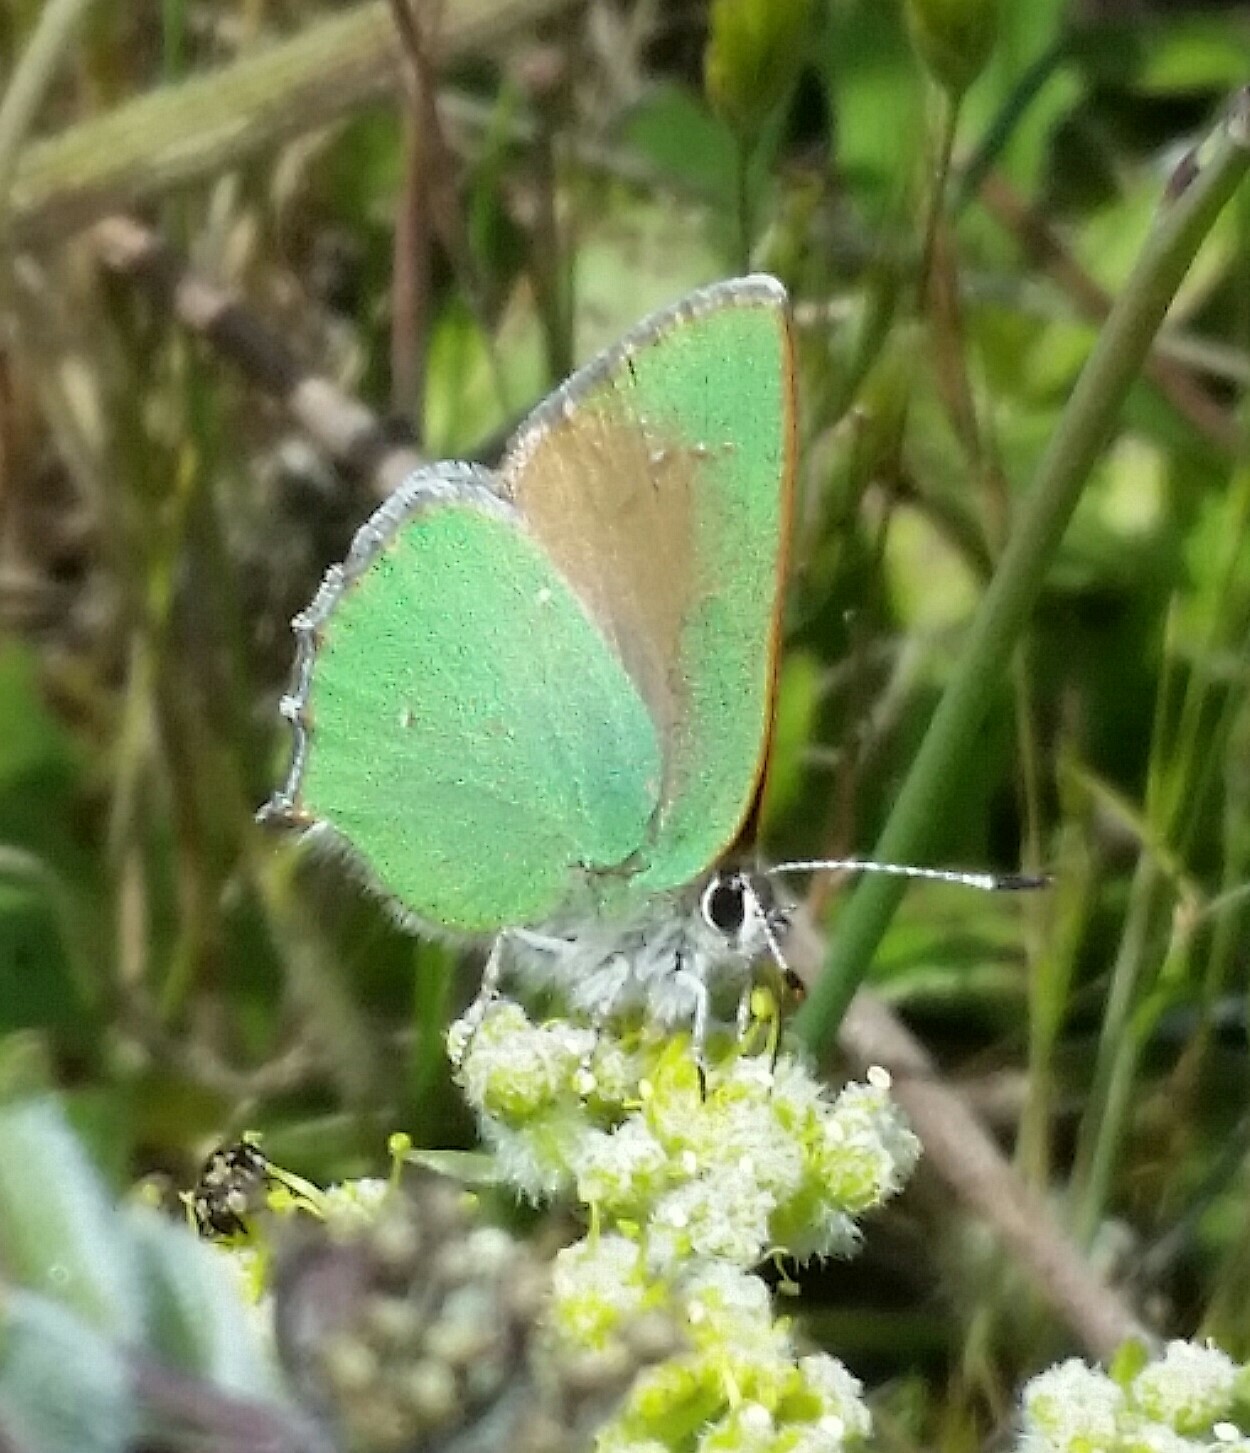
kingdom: Animalia
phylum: Arthropoda
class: Insecta
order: Lepidoptera
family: Lycaenidae
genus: Callophrys
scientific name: Callophrys dumetorum
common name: Bramble hairstreak
